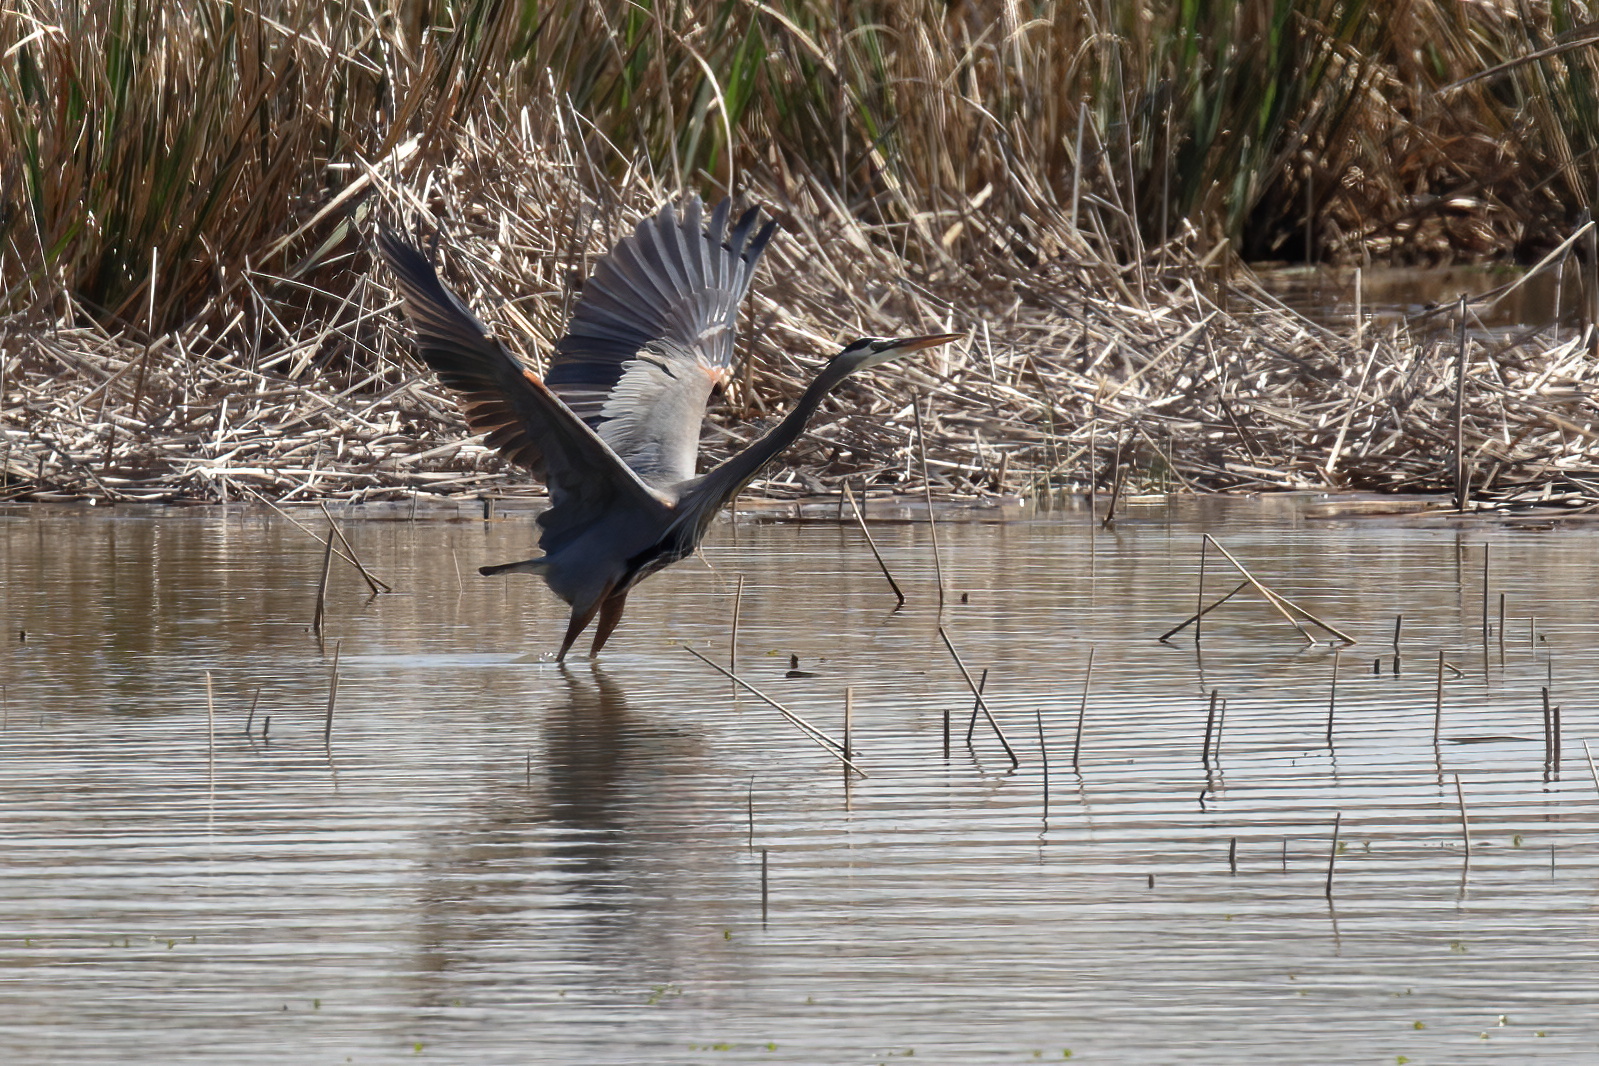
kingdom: Animalia
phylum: Chordata
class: Aves
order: Pelecaniformes
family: Ardeidae
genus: Ardea
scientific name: Ardea herodias
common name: Great blue heron
